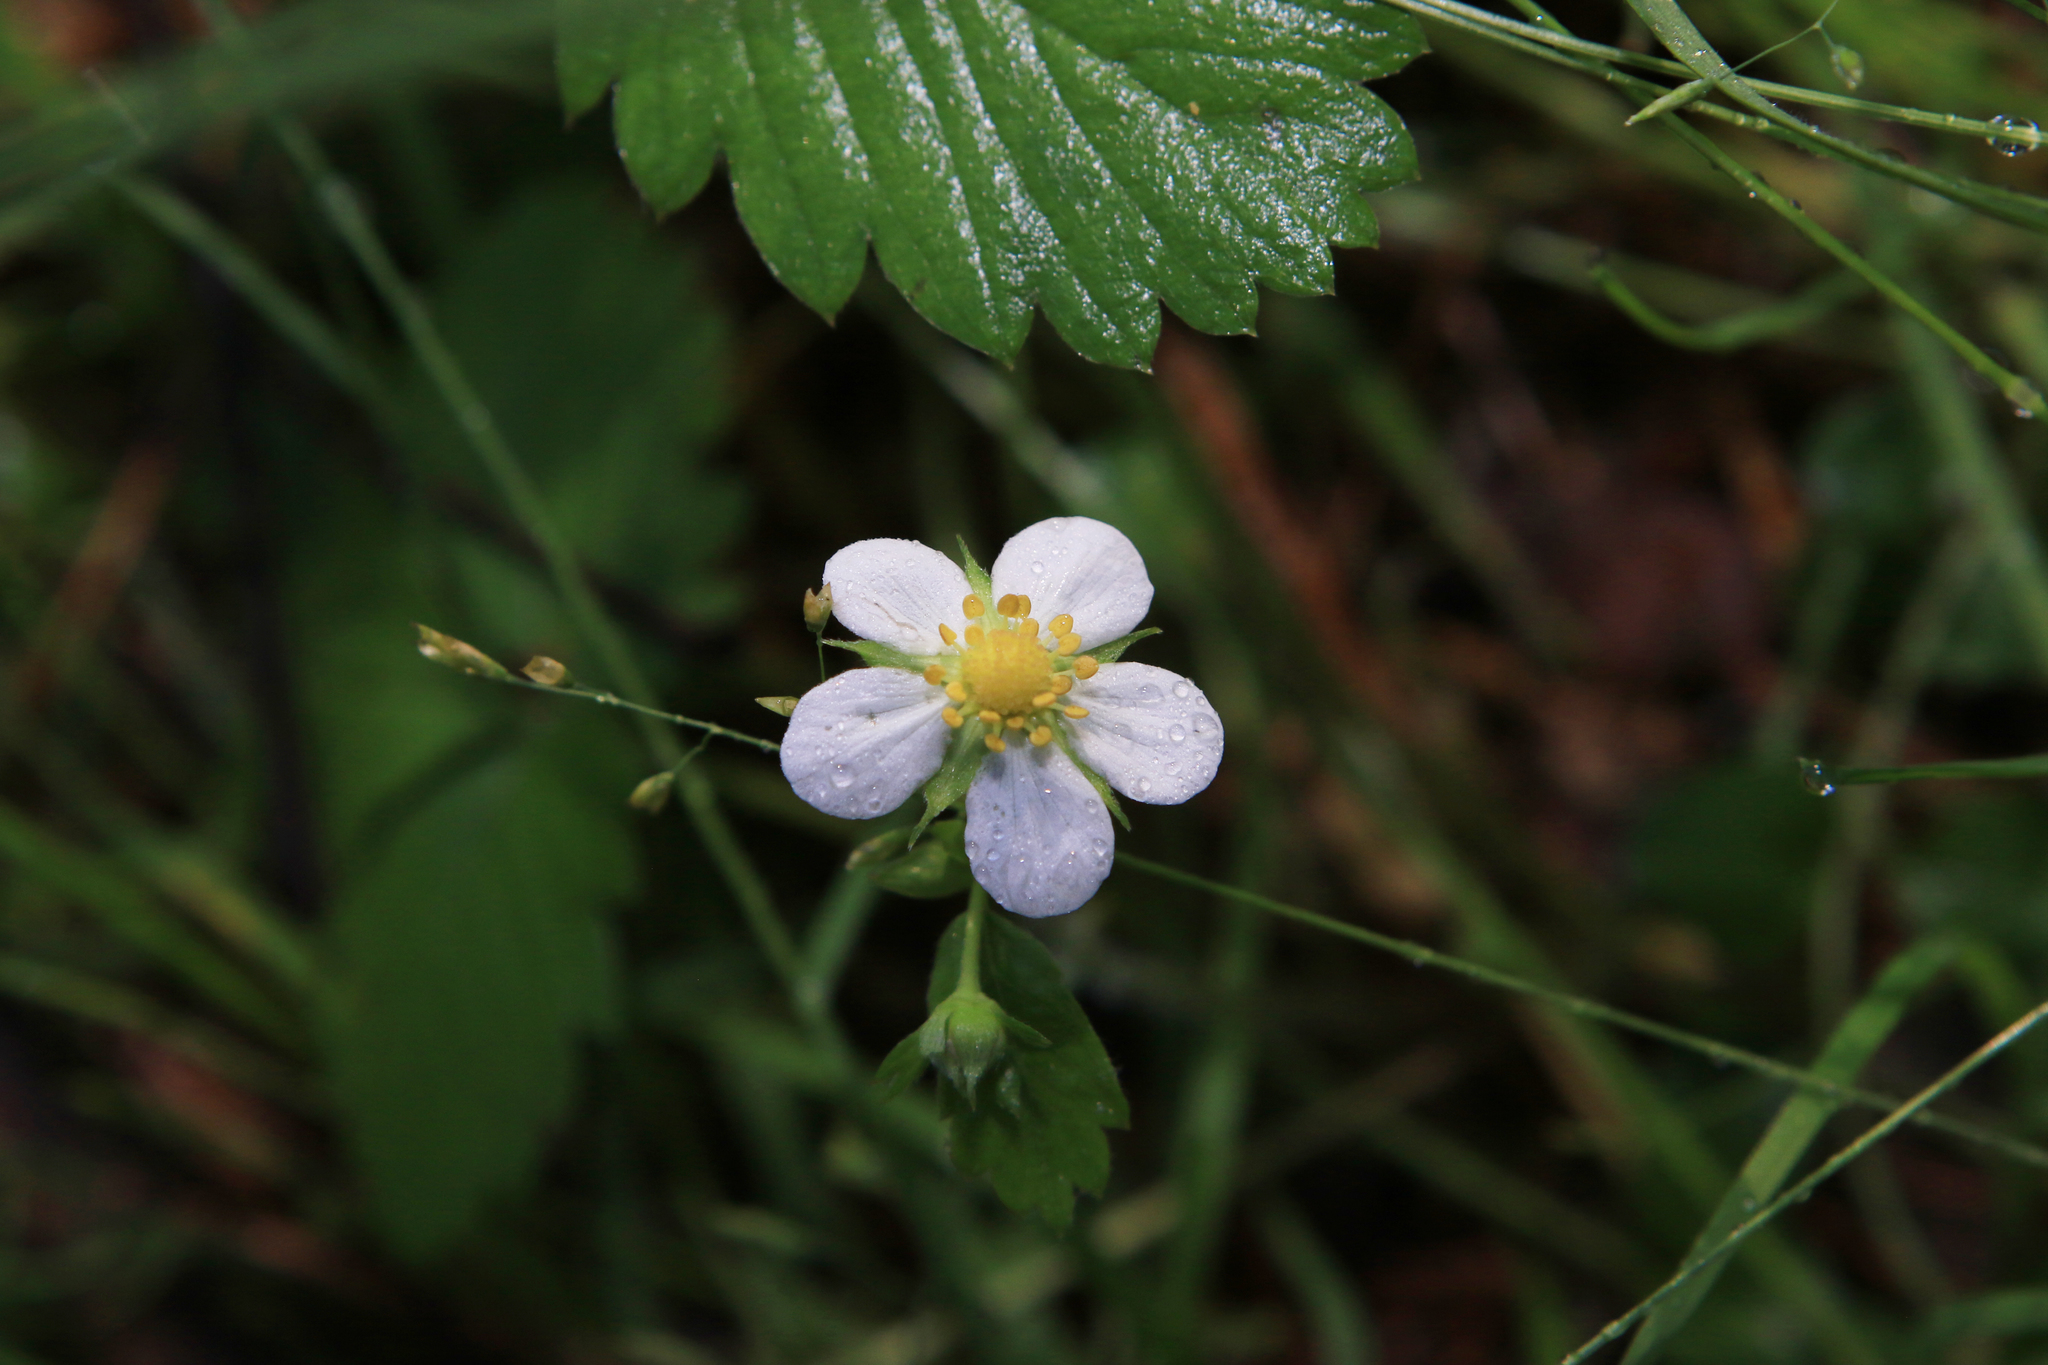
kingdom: Plantae
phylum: Tracheophyta
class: Magnoliopsida
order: Rosales
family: Rosaceae
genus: Fragaria
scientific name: Fragaria vesca
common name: Wild strawberry
